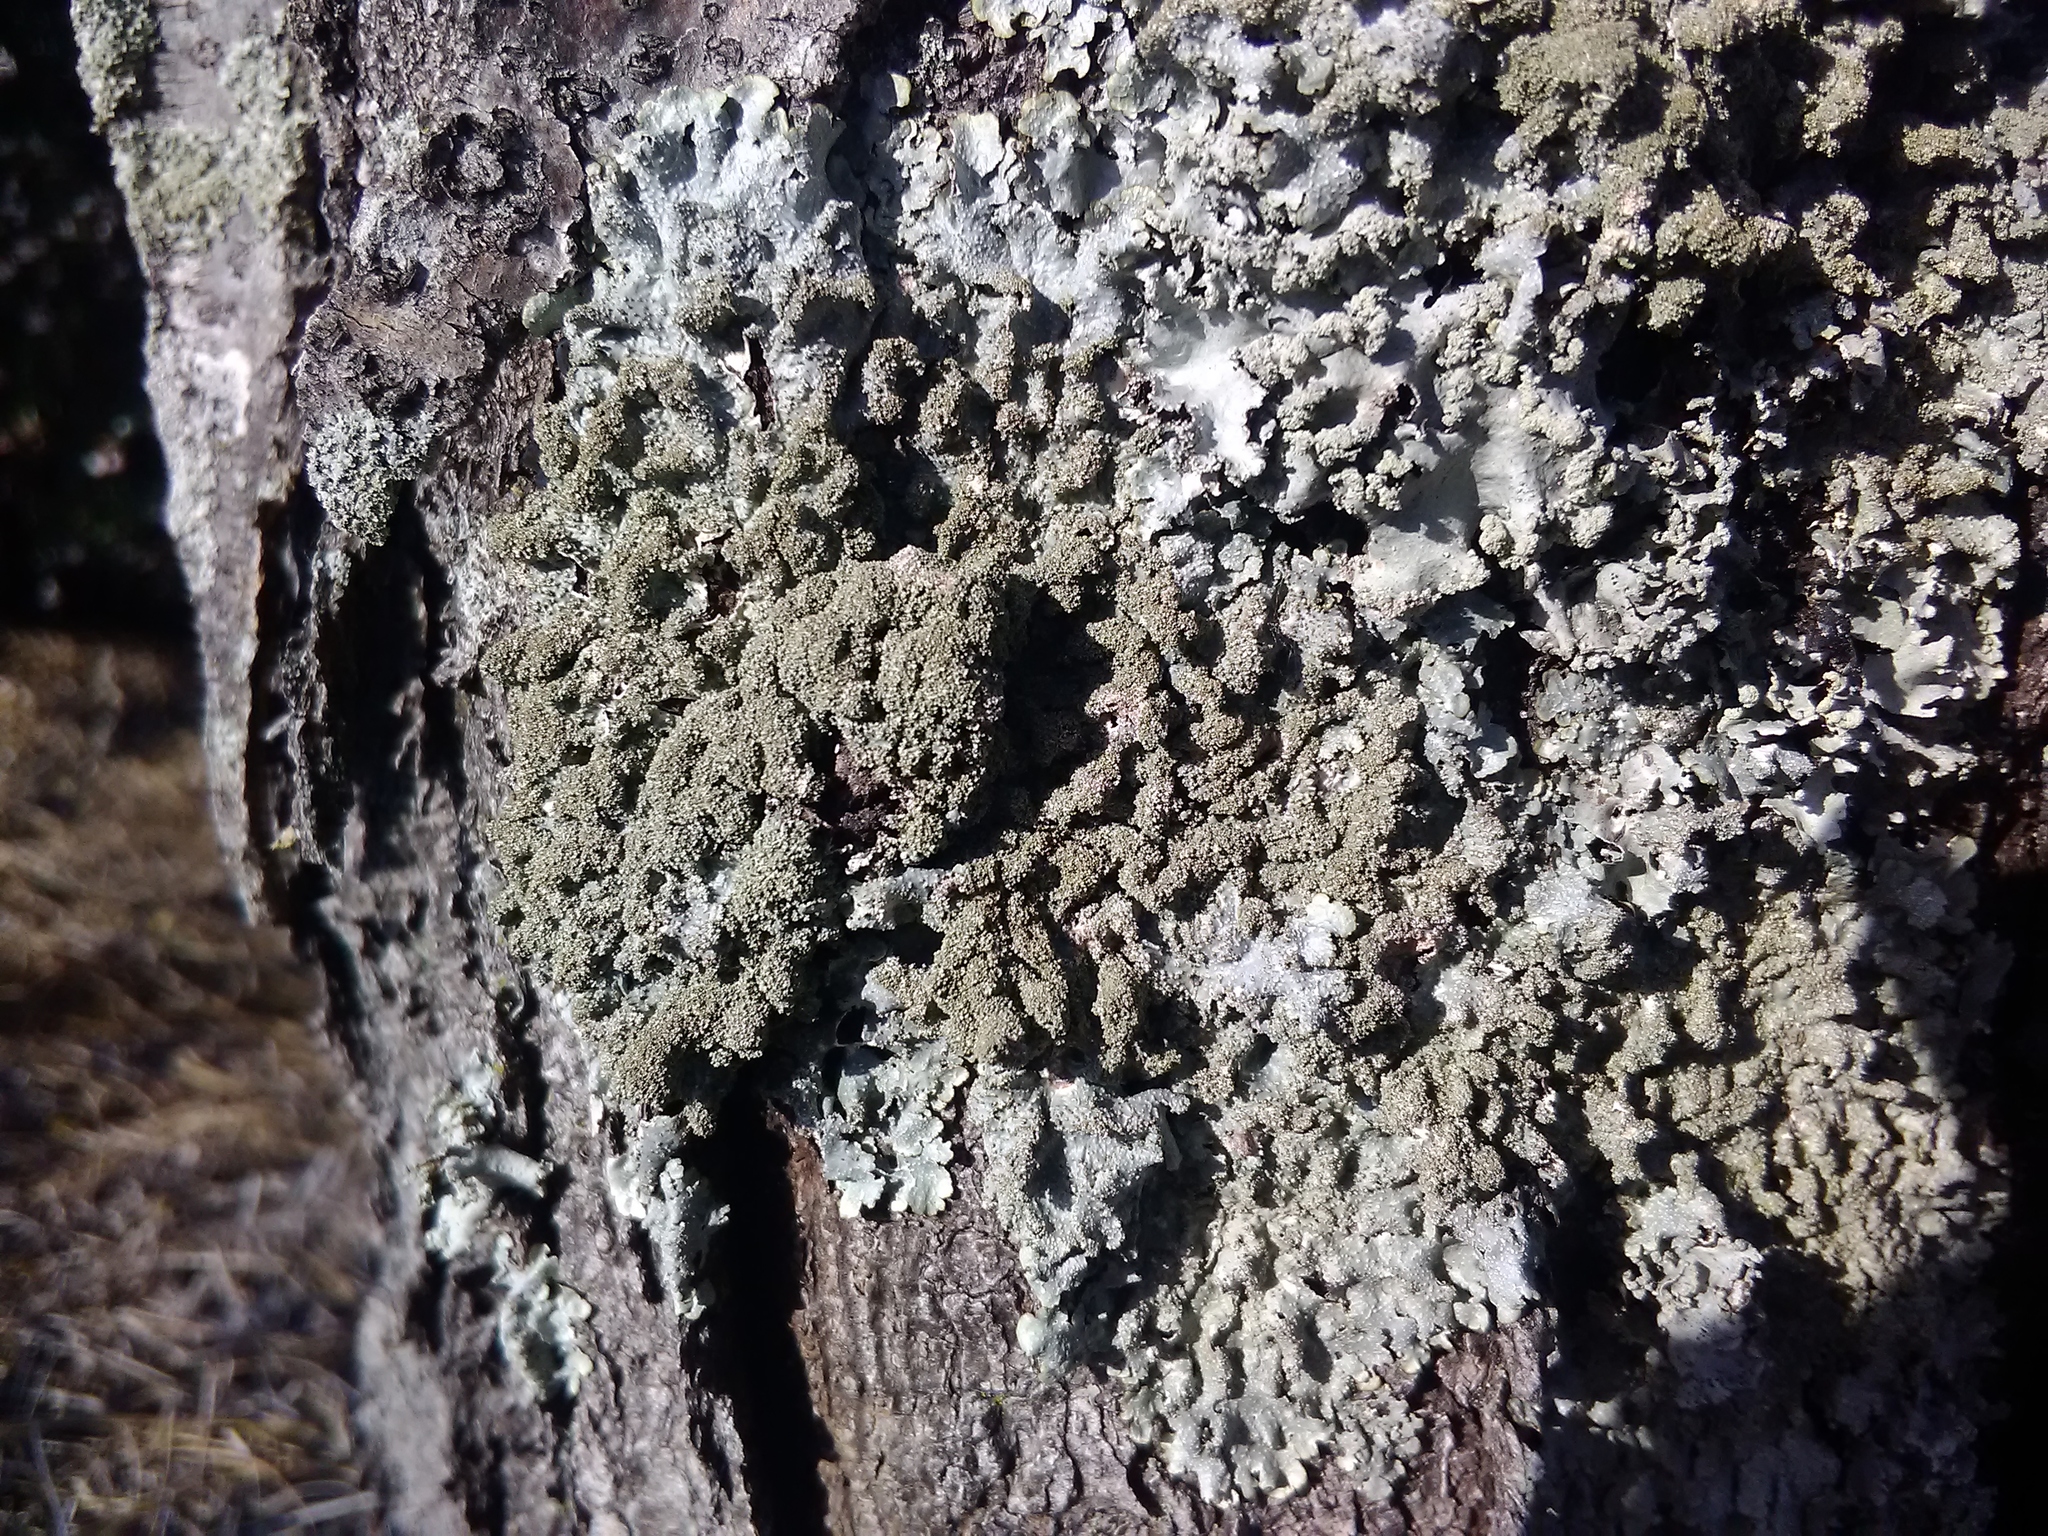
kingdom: Fungi
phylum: Ascomycota
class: Lecanoromycetes
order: Lecanorales
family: Parmeliaceae
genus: Punctelia
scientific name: Punctelia rudecta
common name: Rough speckled shield lichen
